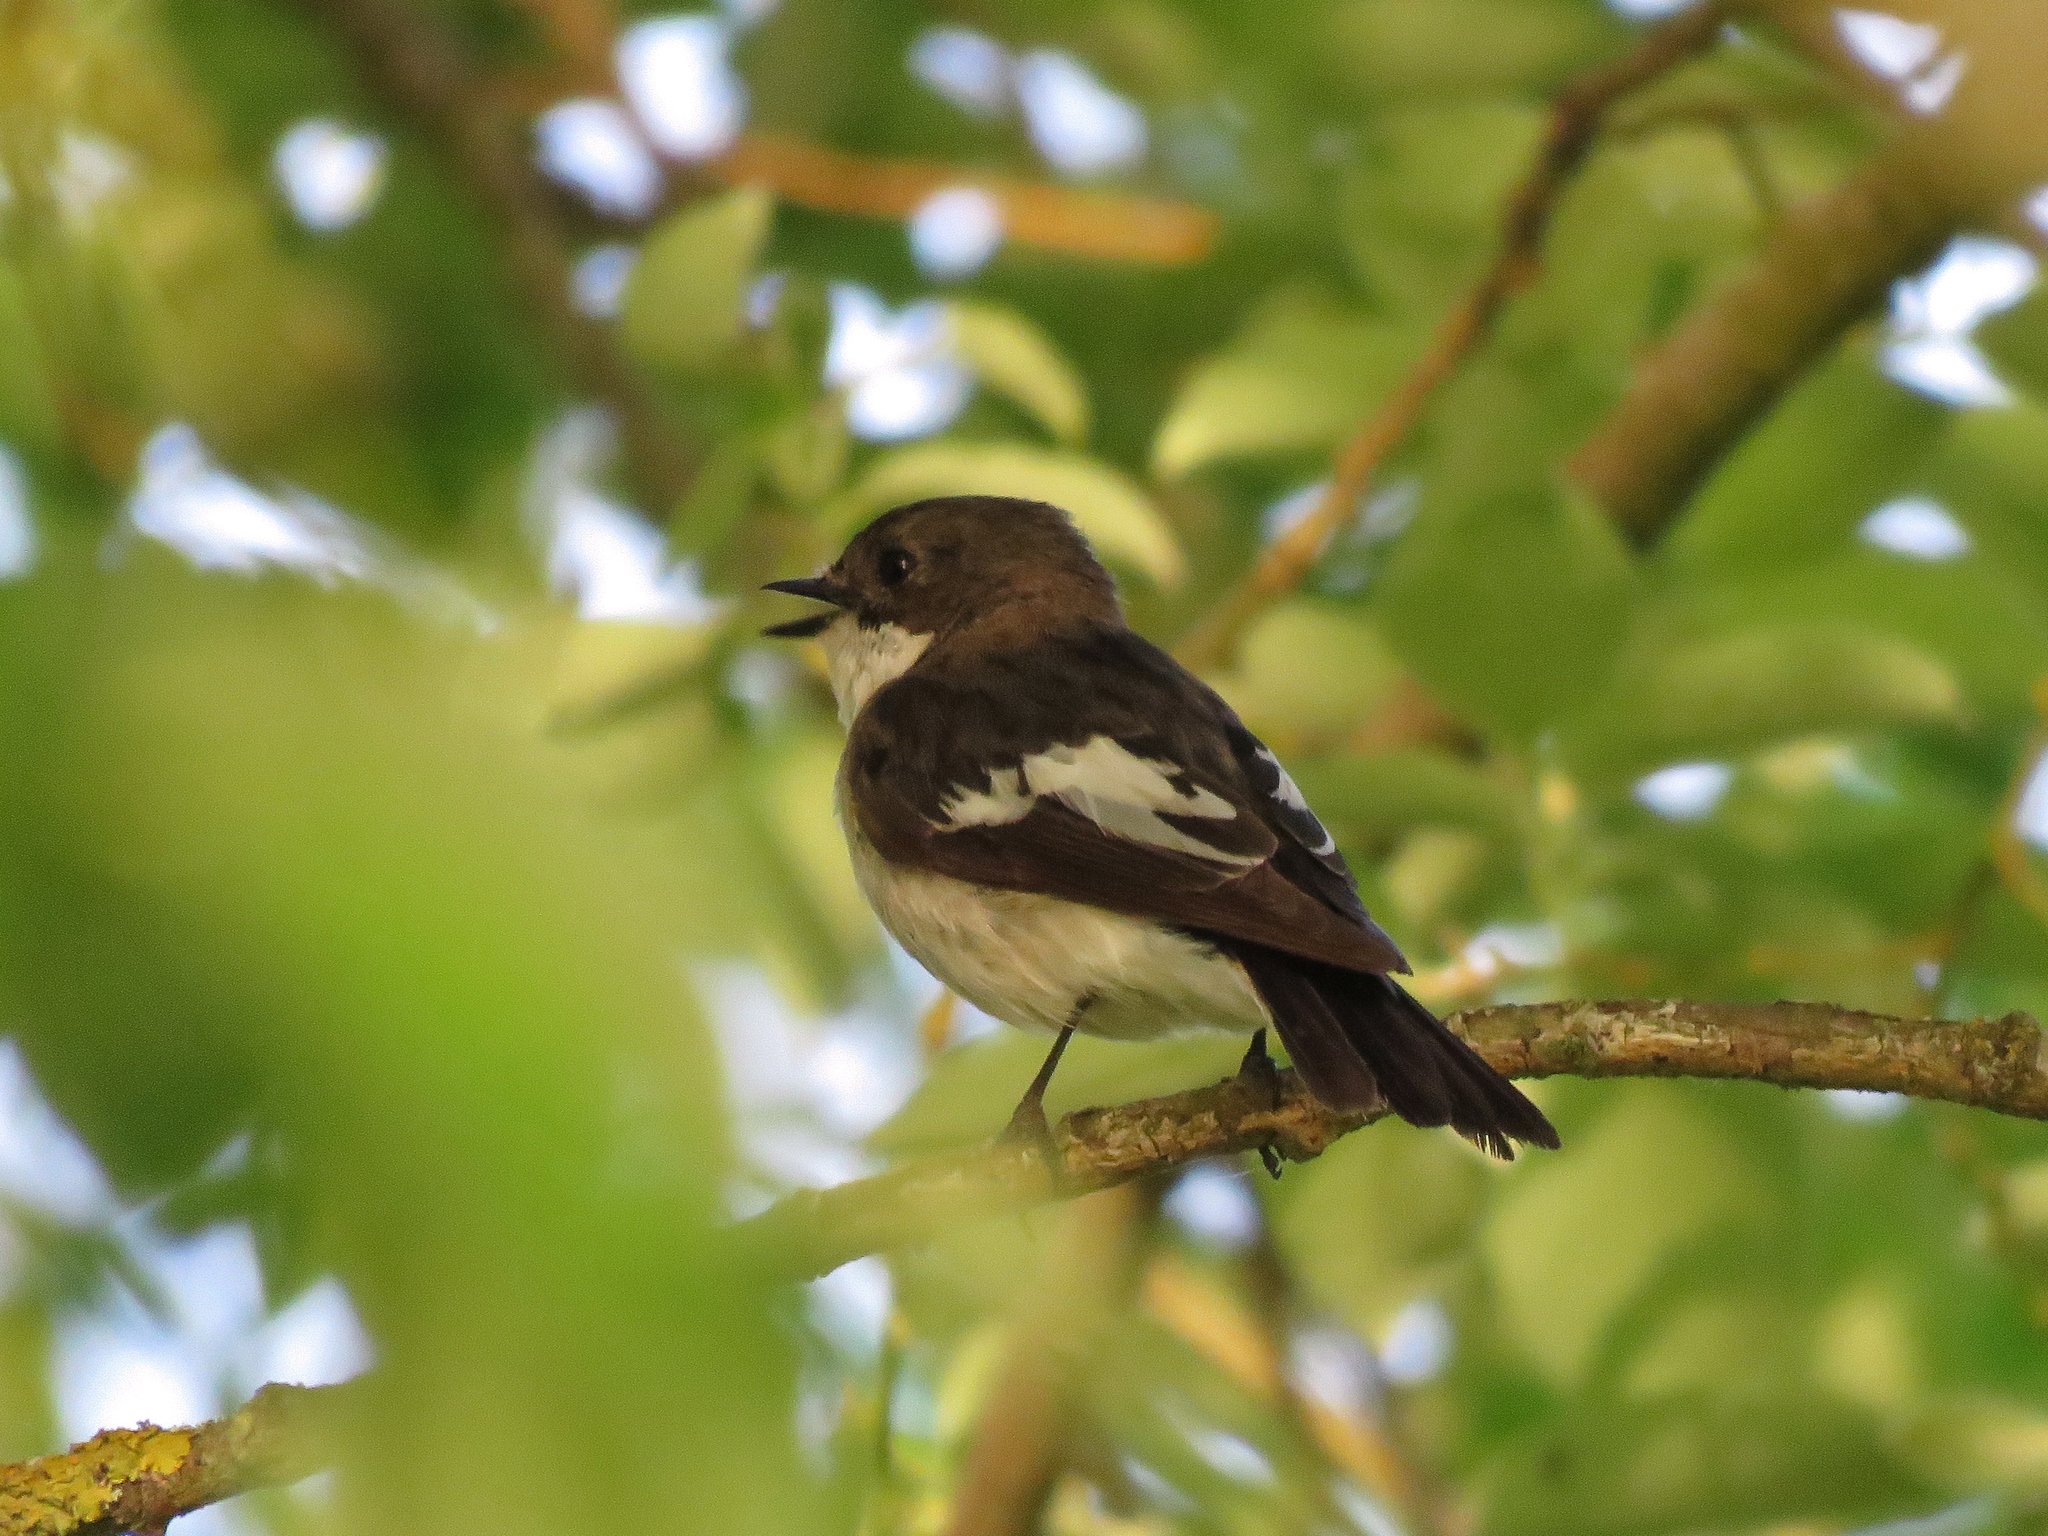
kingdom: Animalia
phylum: Chordata
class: Aves
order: Passeriformes
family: Muscicapidae
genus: Ficedula
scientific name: Ficedula hypoleuca
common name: European pied flycatcher
